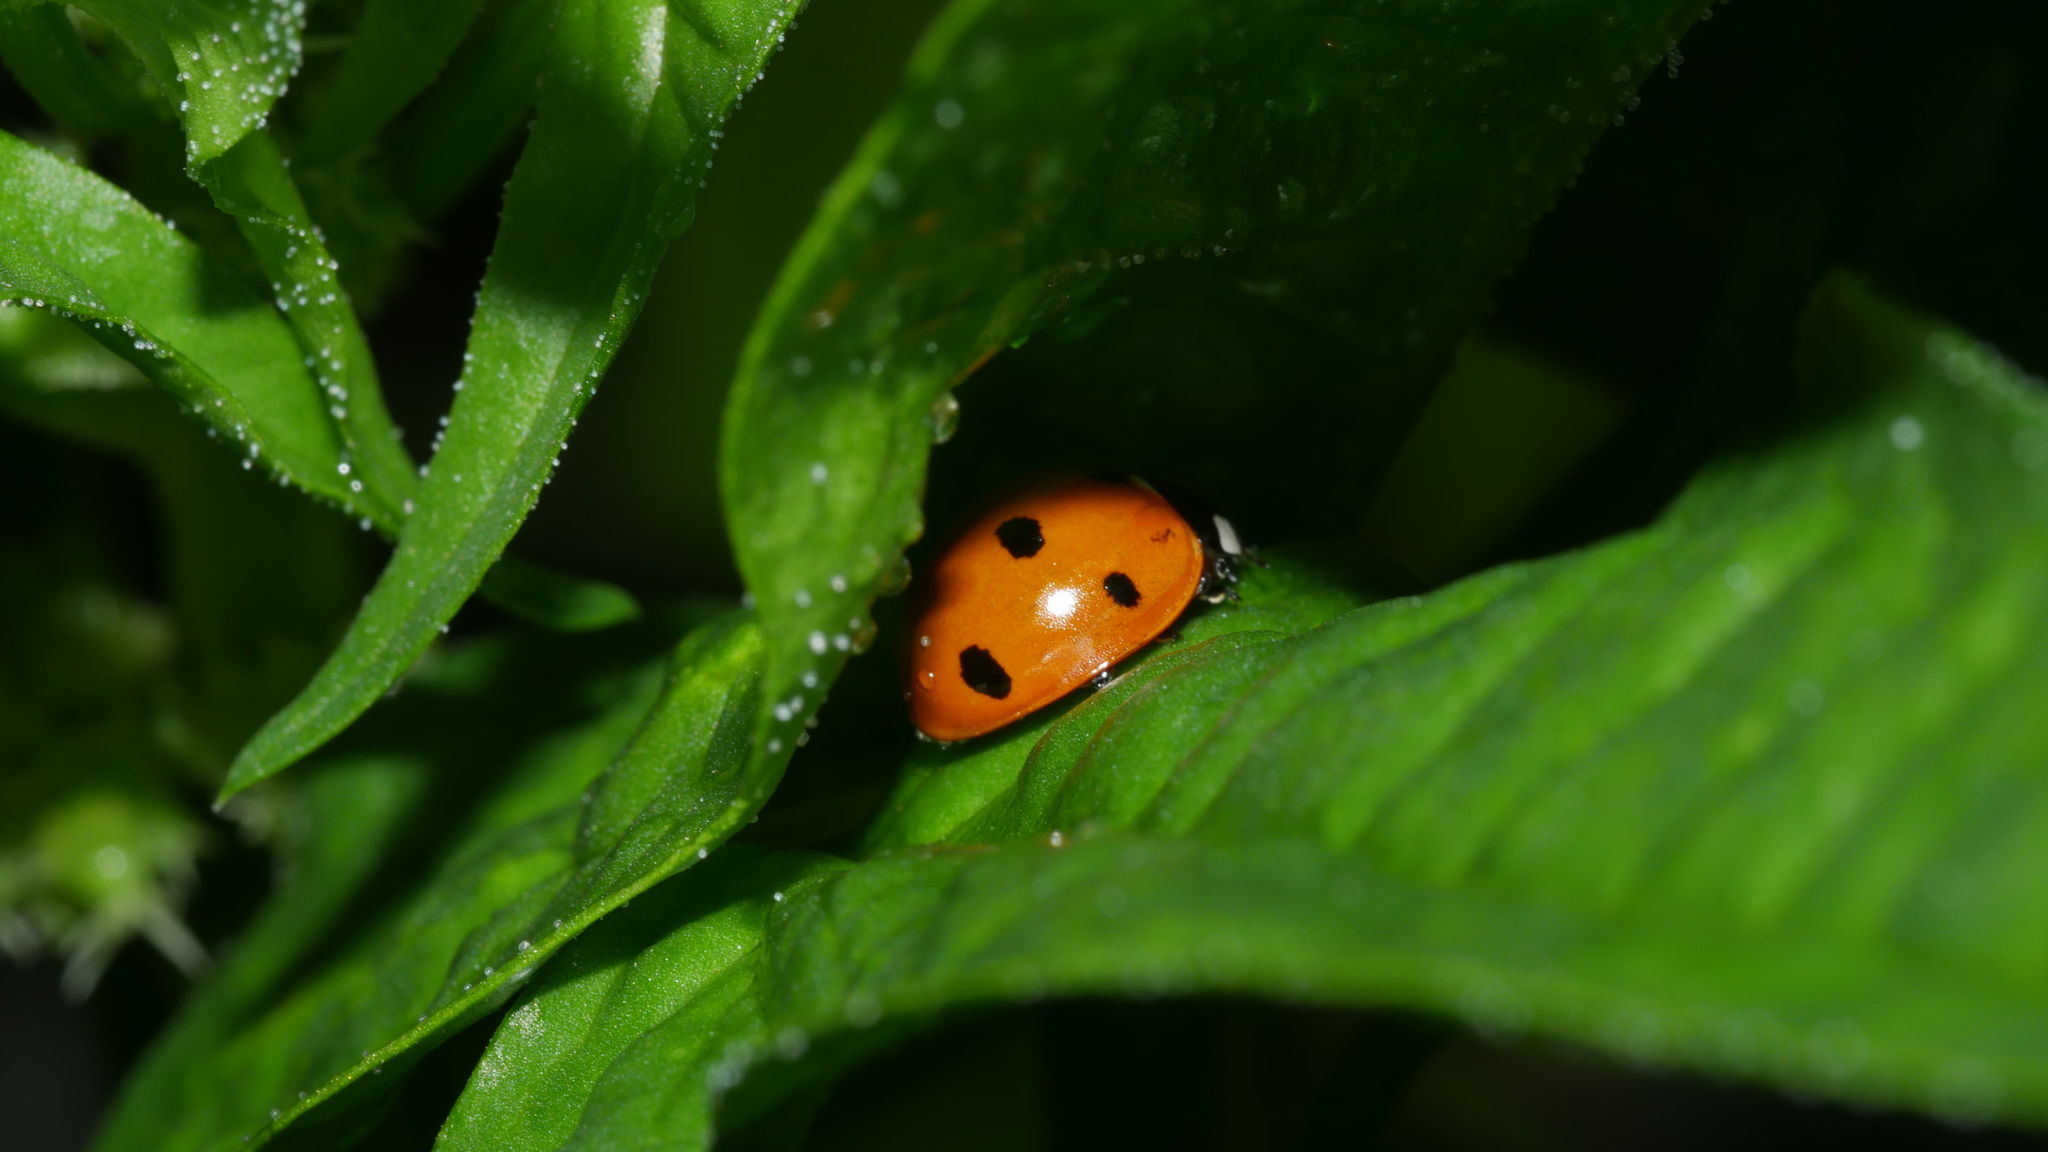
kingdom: Animalia
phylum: Arthropoda
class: Insecta
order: Coleoptera
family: Coccinellidae
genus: Coccinella
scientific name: Coccinella septempunctata
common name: Sevenspotted lady beetle
